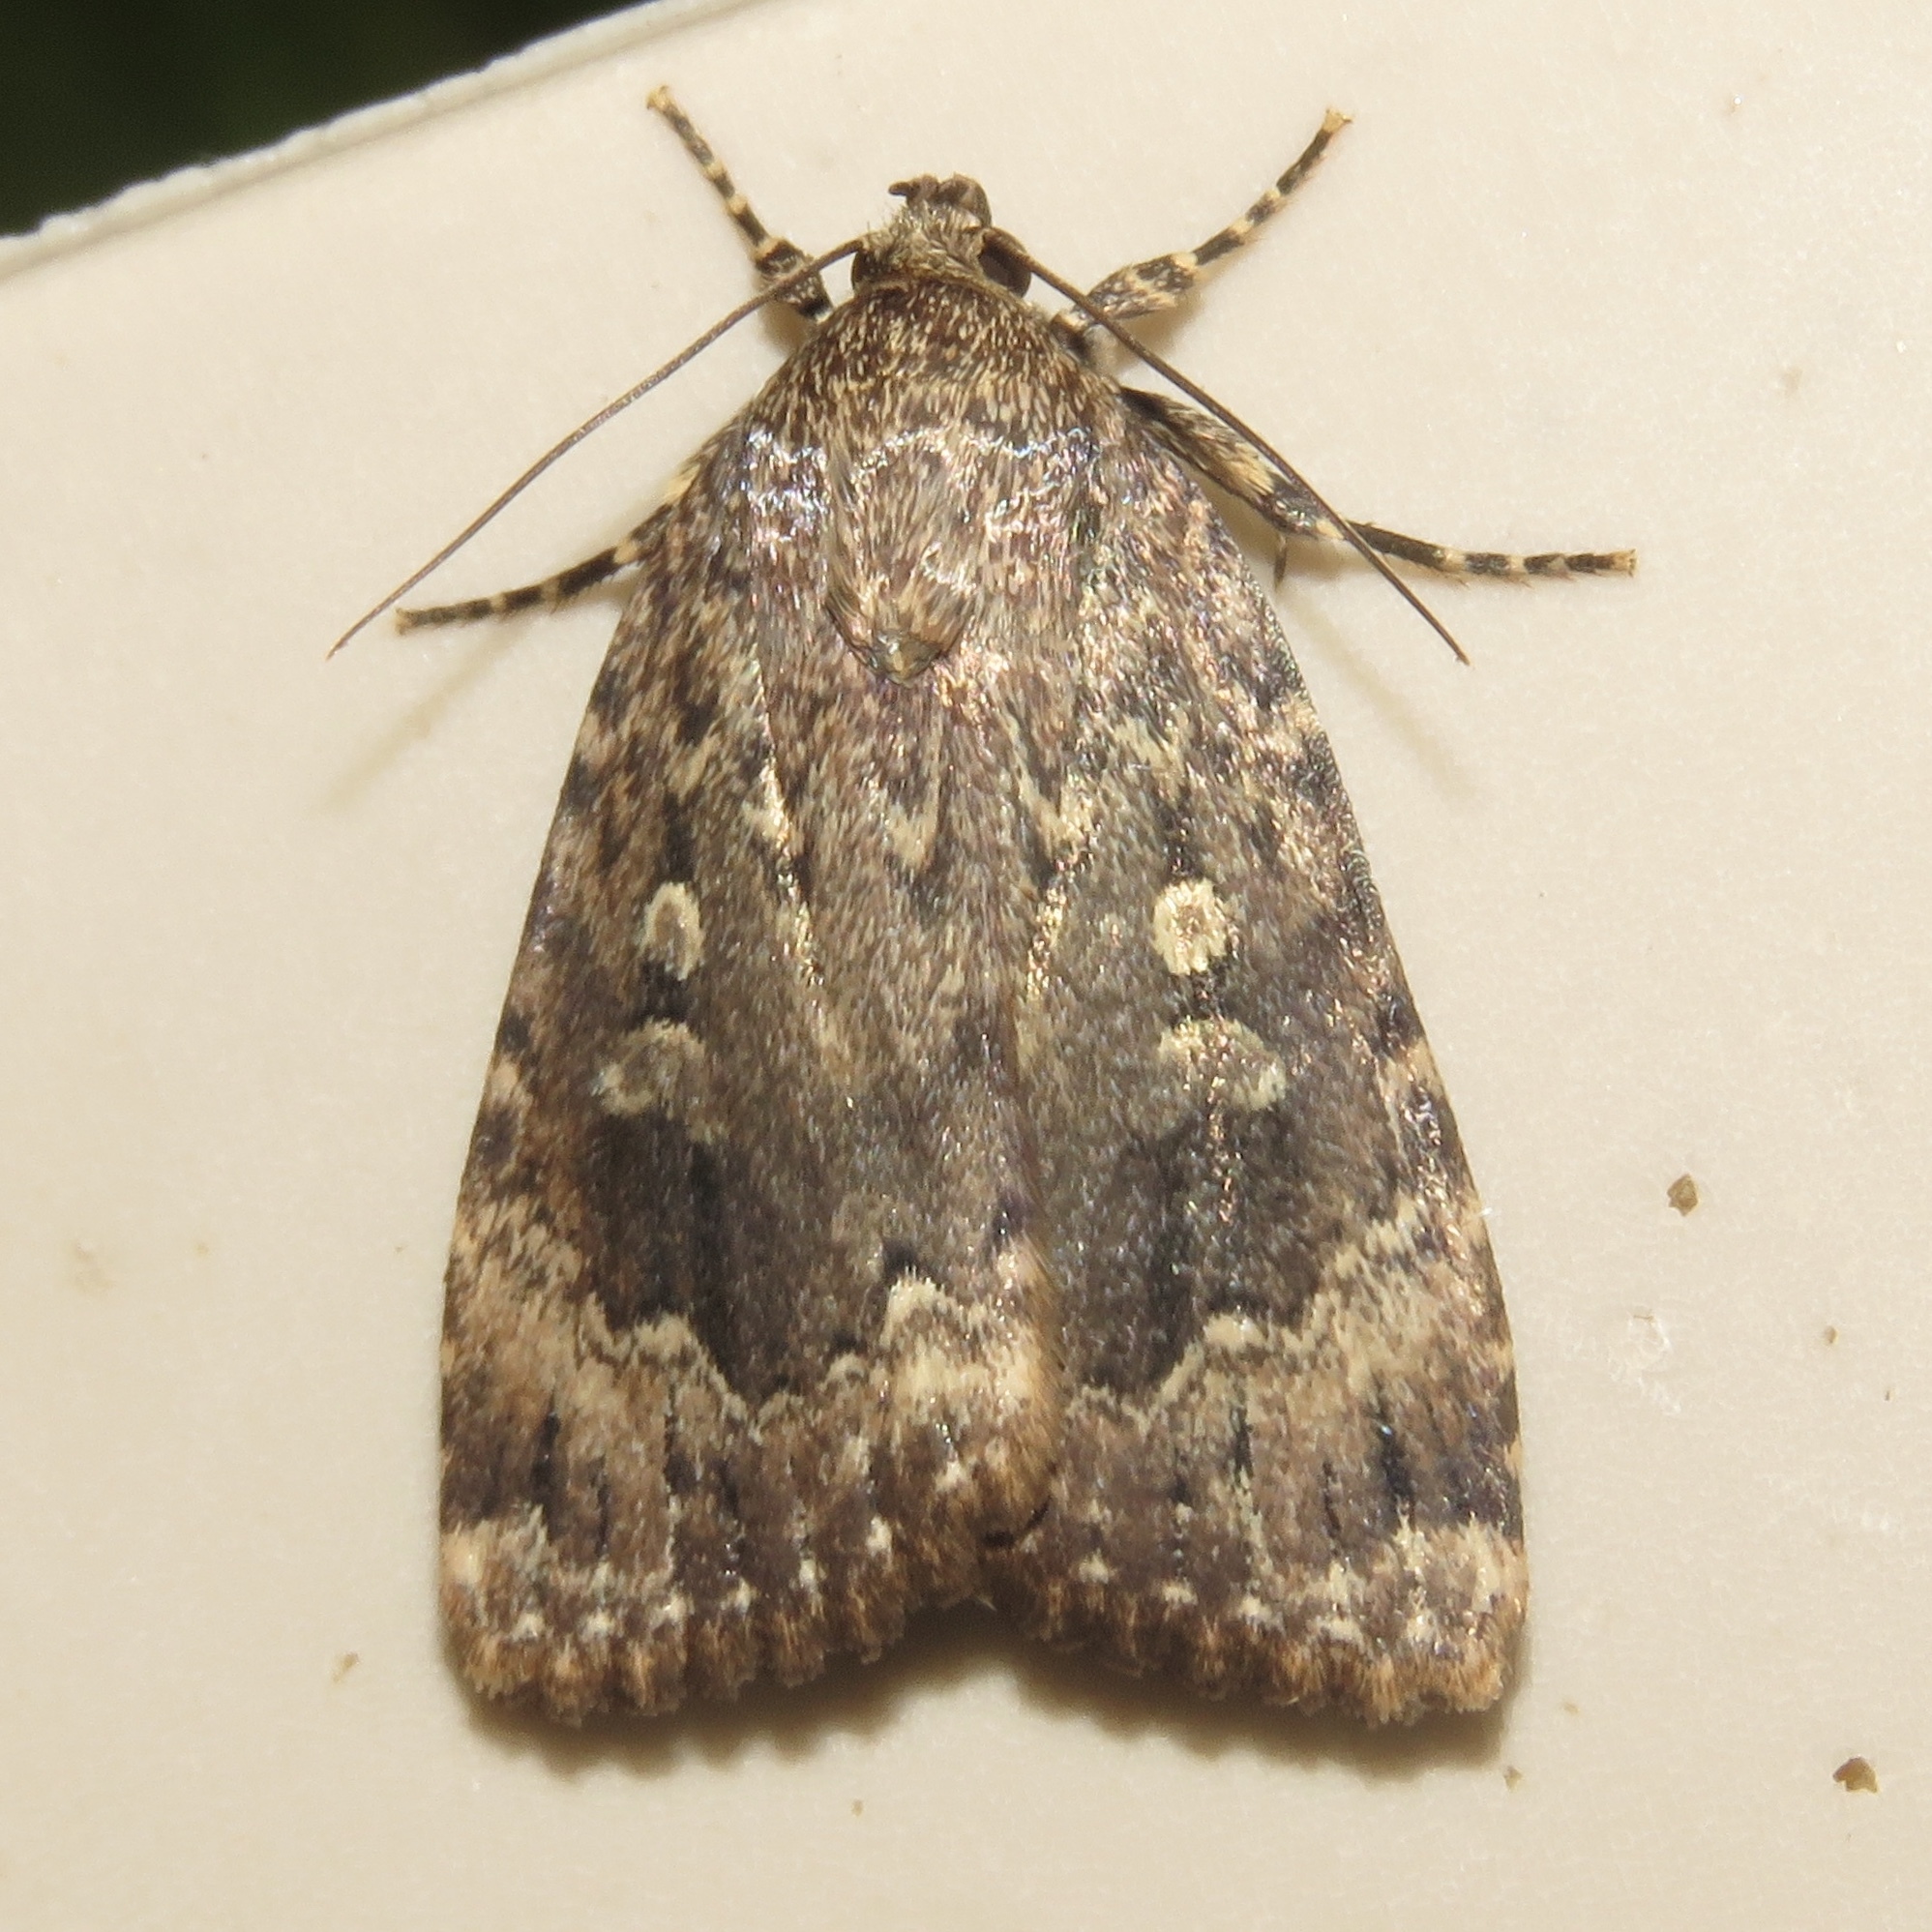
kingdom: Animalia
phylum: Arthropoda
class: Insecta
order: Lepidoptera
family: Noctuidae
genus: Amphipyra
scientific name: Amphipyra pyramidoides
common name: American copper underwing
